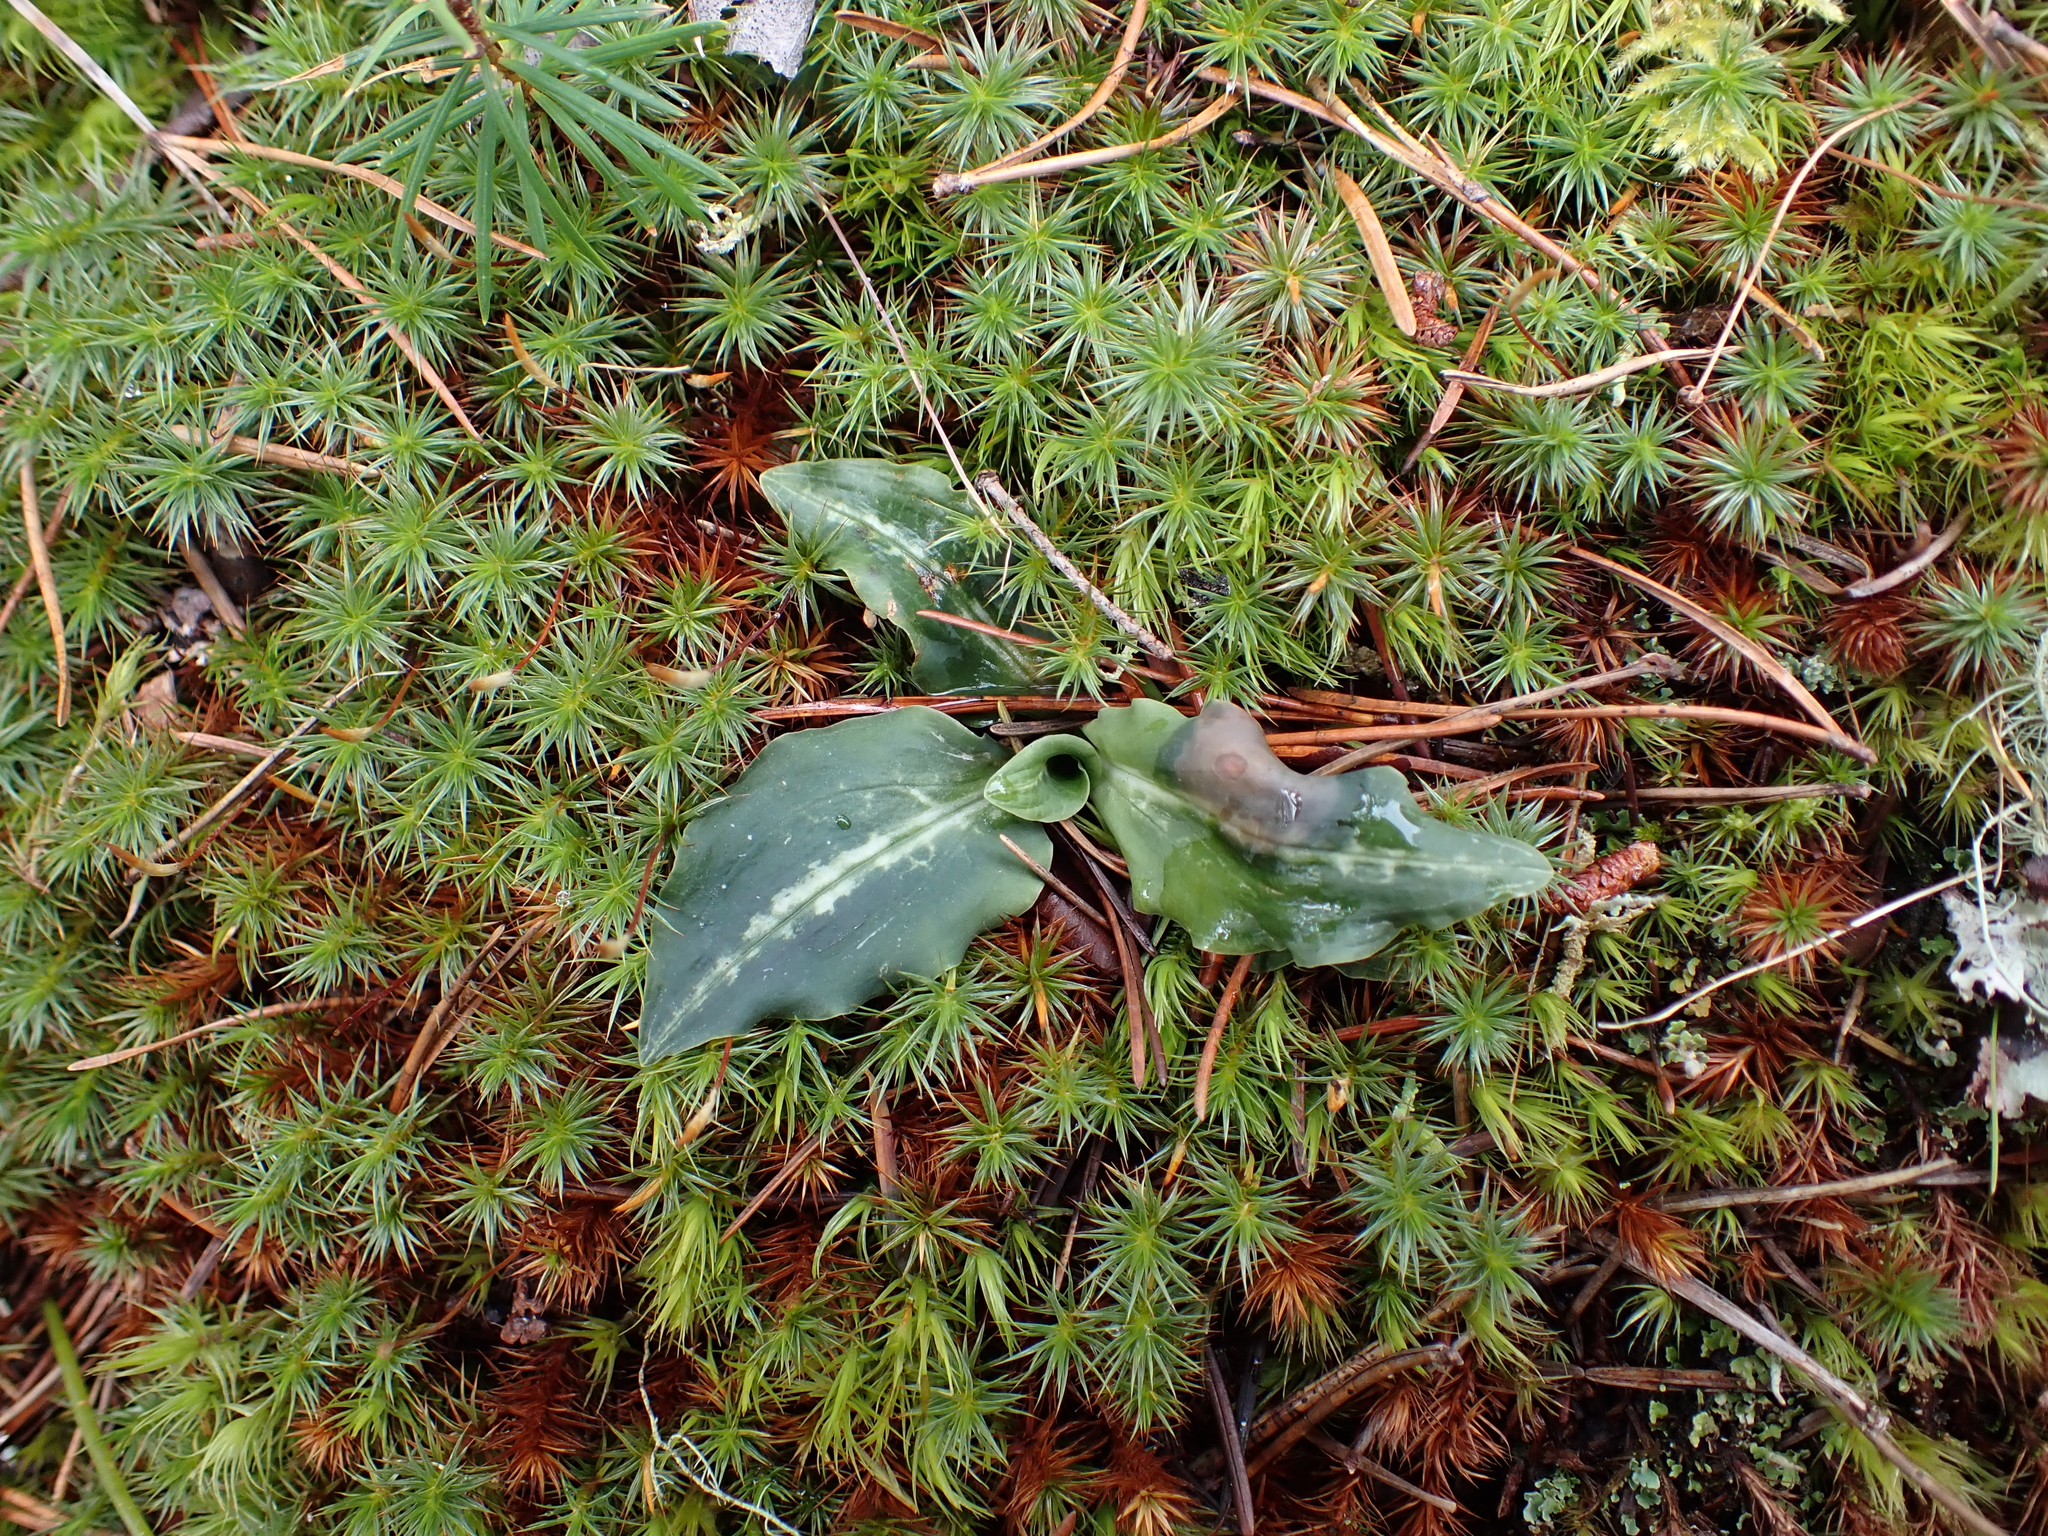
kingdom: Plantae
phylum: Tracheophyta
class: Liliopsida
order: Asparagales
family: Orchidaceae
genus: Goodyera
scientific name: Goodyera oblongifolia
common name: Giant rattlesnake-plantain
